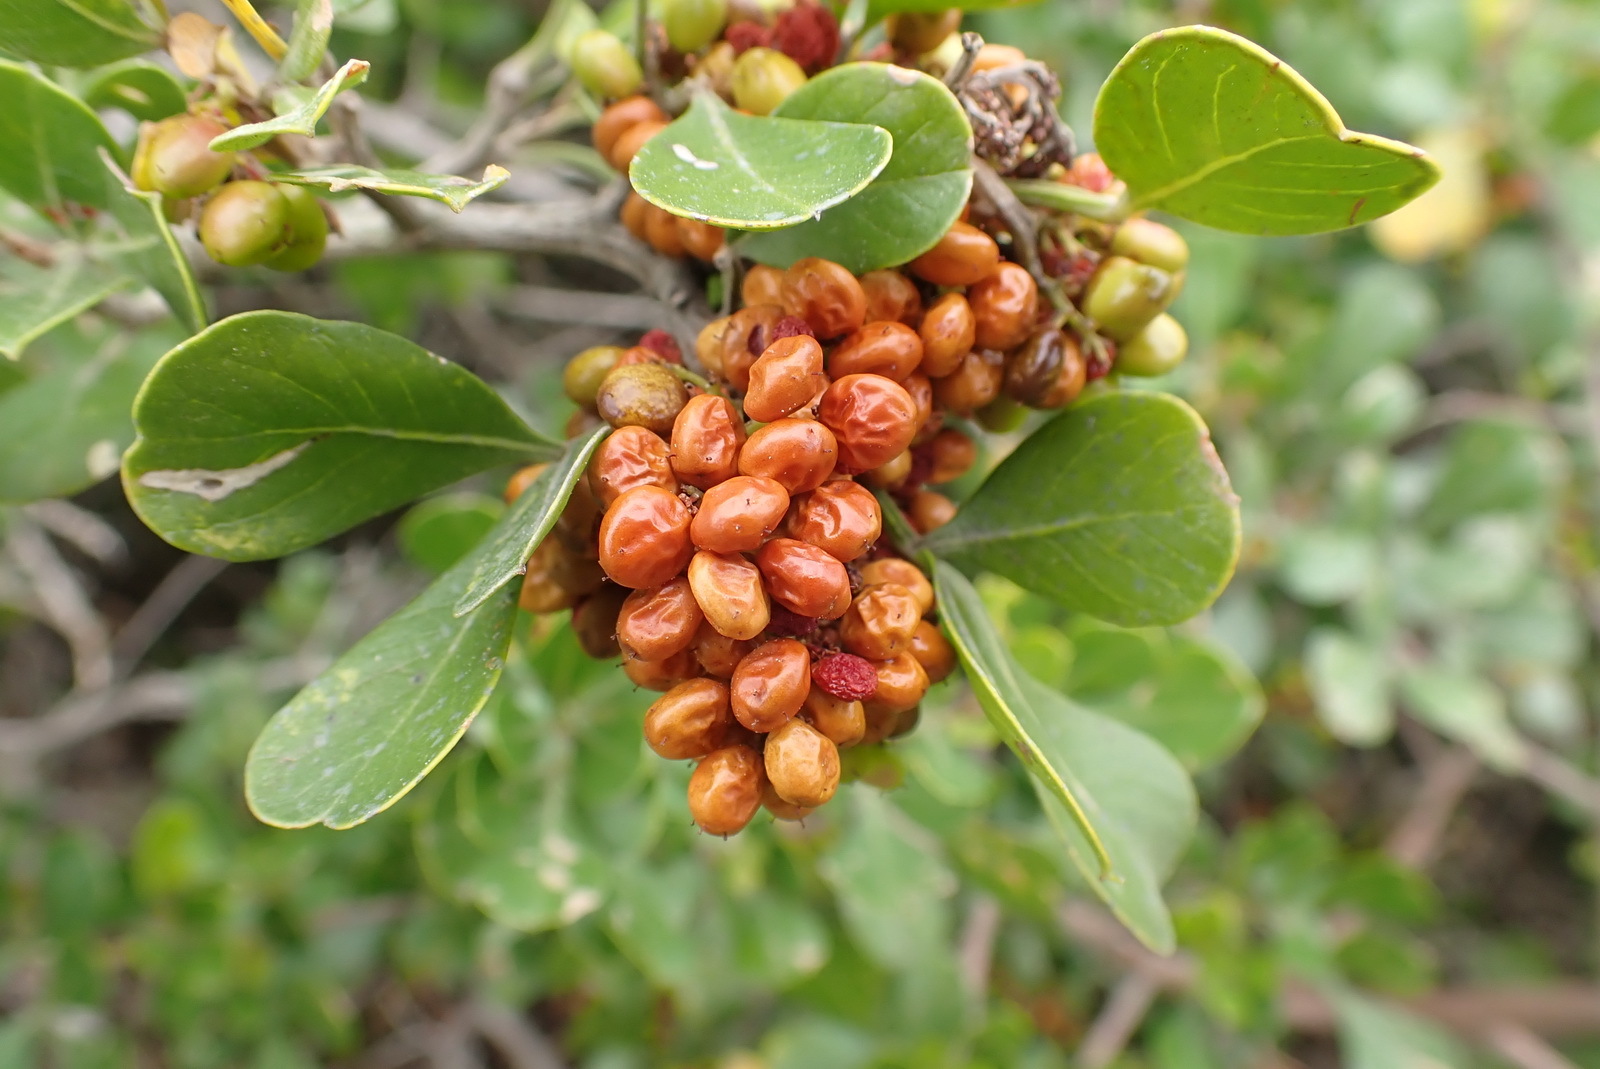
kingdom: Plantae
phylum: Tracheophyta
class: Magnoliopsida
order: Sapindales
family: Anacardiaceae
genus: Searsia
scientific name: Searsia glauca
